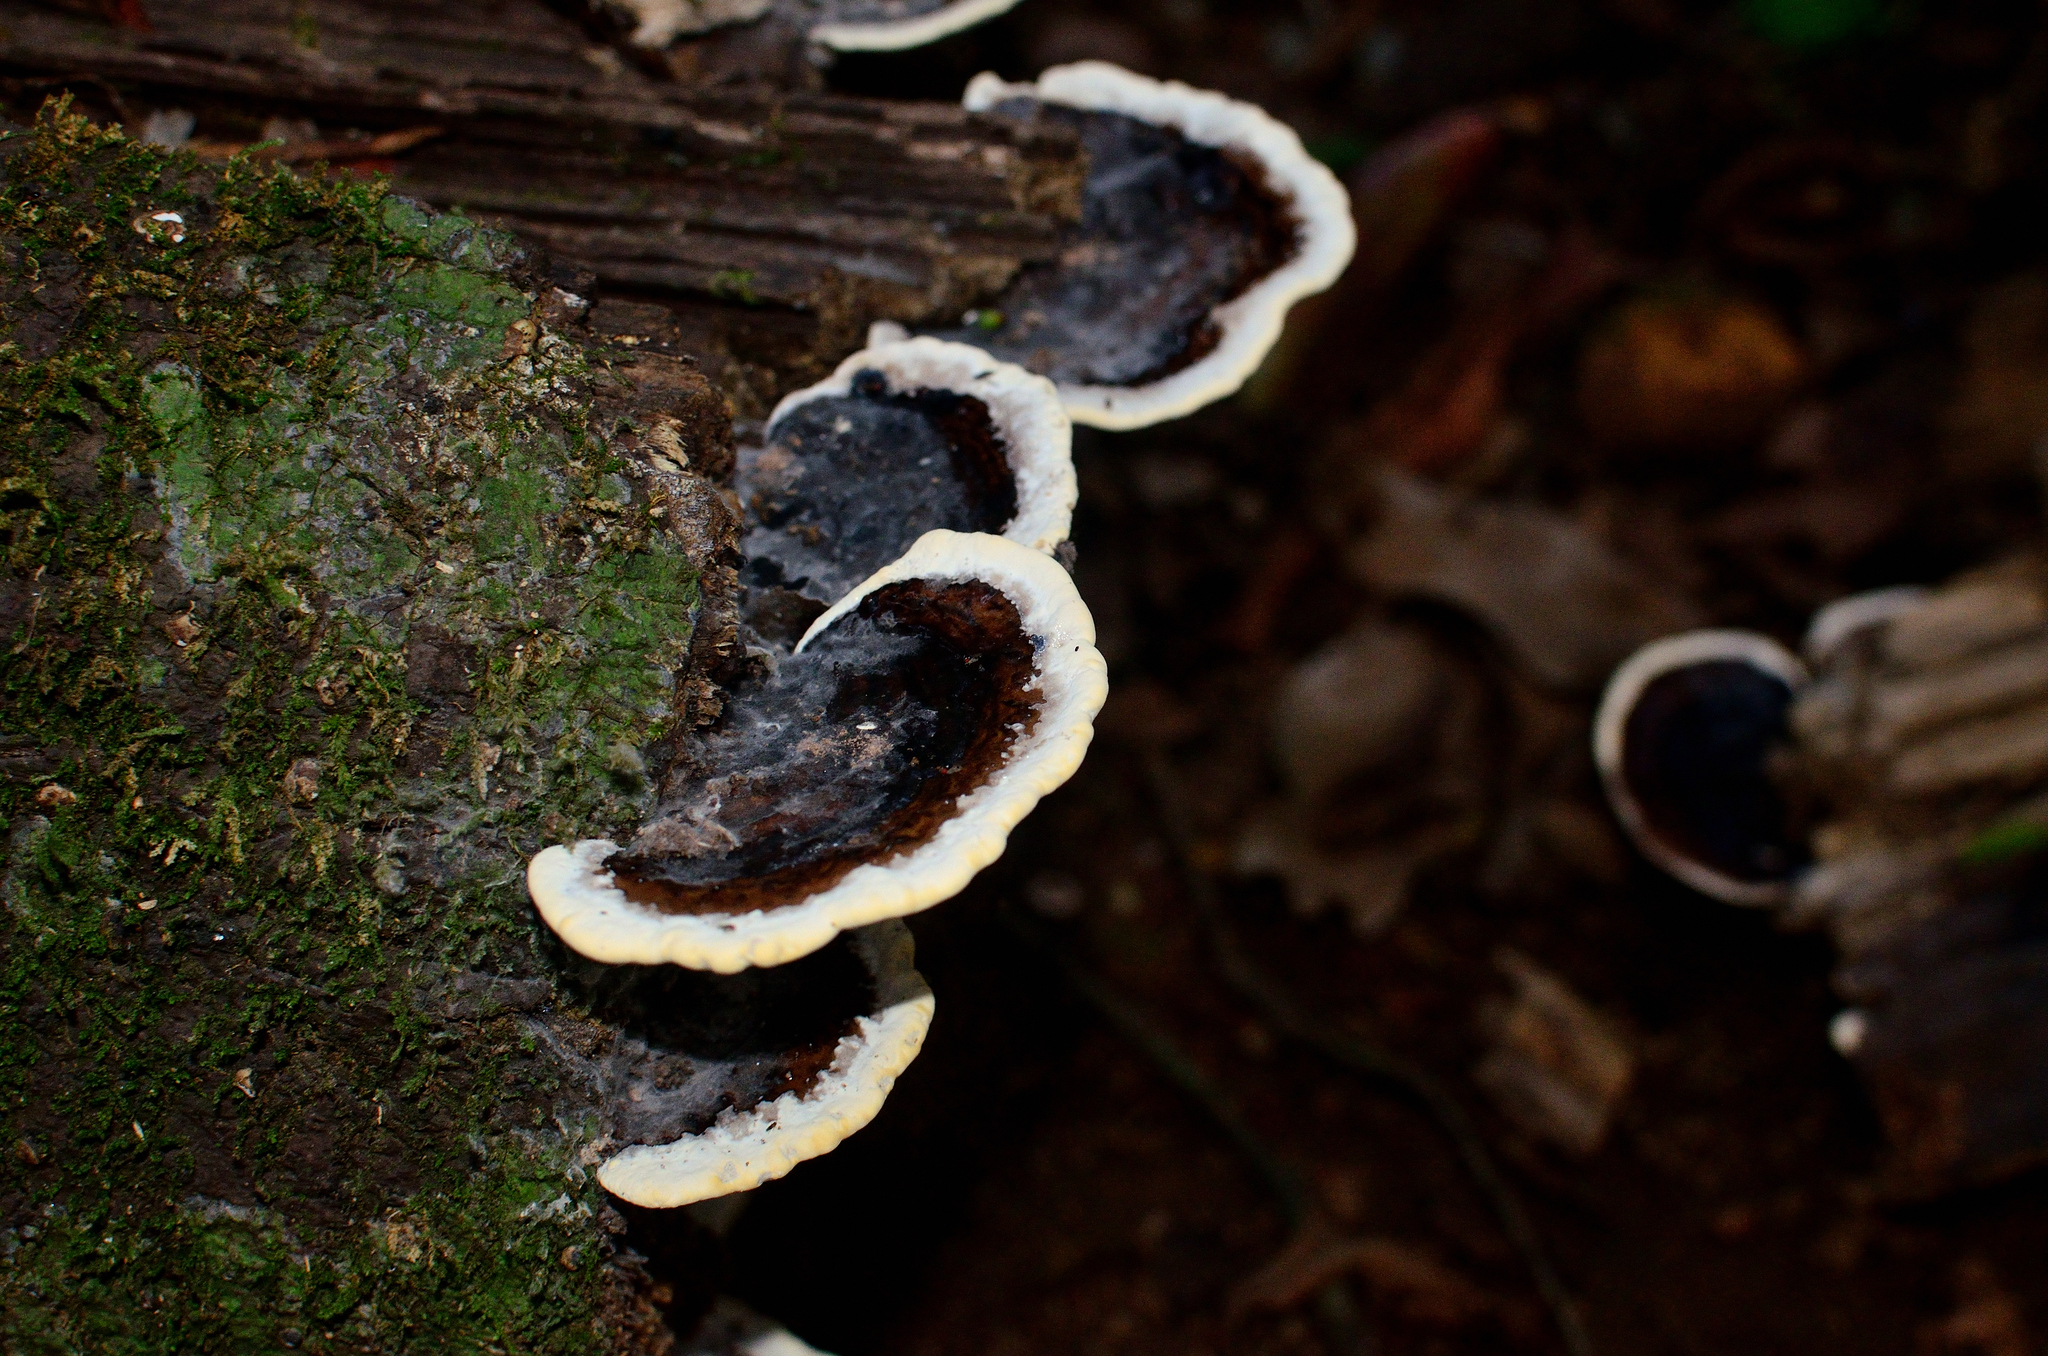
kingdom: Fungi
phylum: Basidiomycota
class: Agaricomycetes
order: Polyporales
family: Polyporaceae
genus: Earliella
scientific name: Earliella scabrosa
